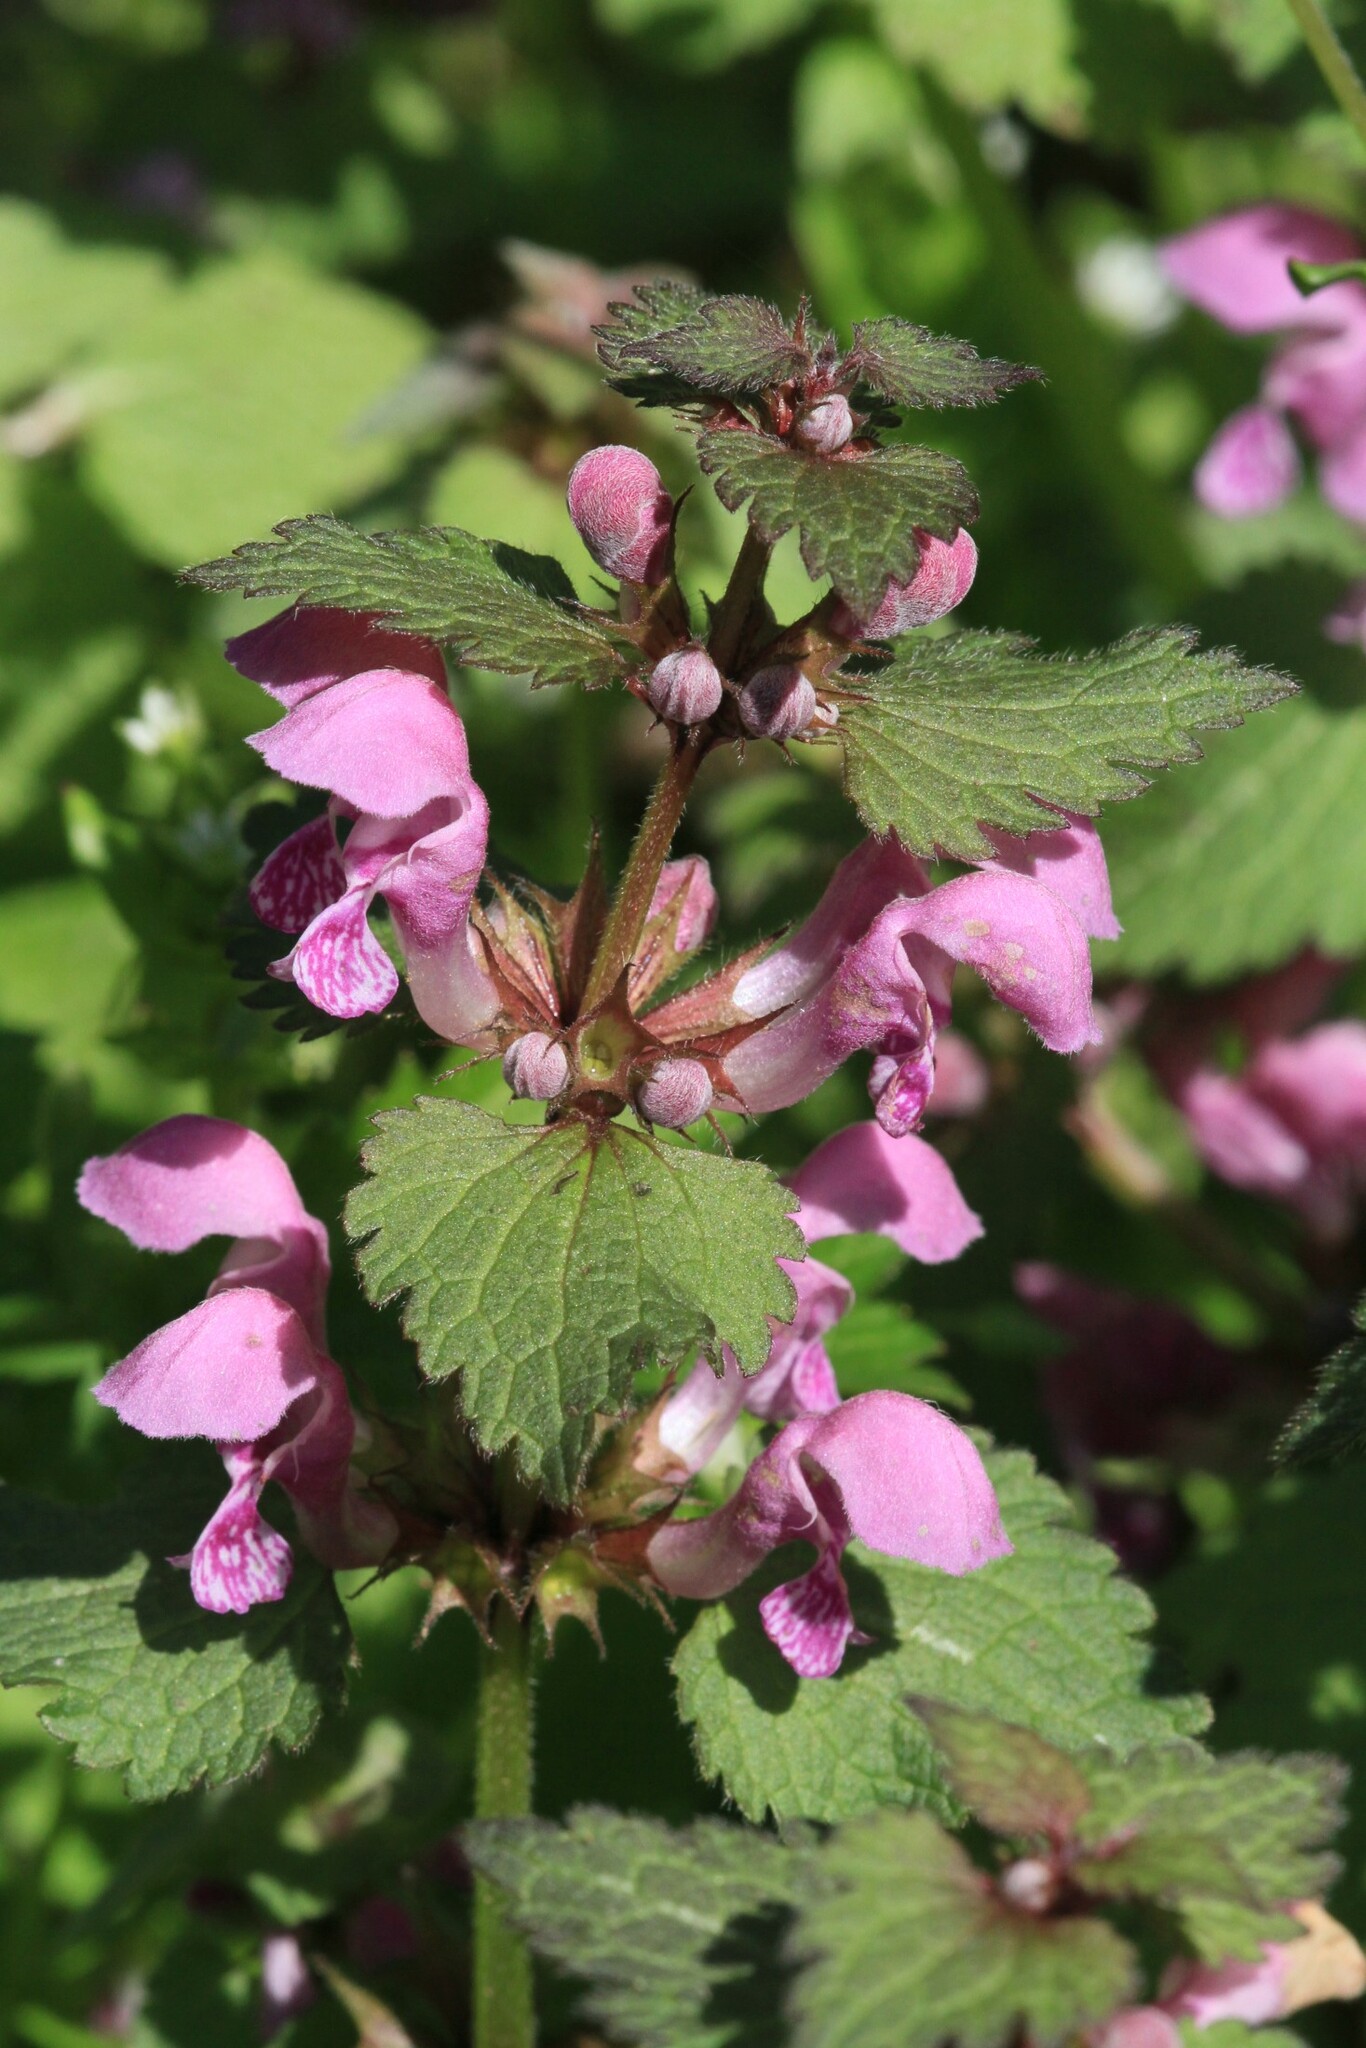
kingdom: Plantae
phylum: Tracheophyta
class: Magnoliopsida
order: Lamiales
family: Lamiaceae
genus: Lamium
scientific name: Lamium maculatum
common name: Spotted dead-nettle
